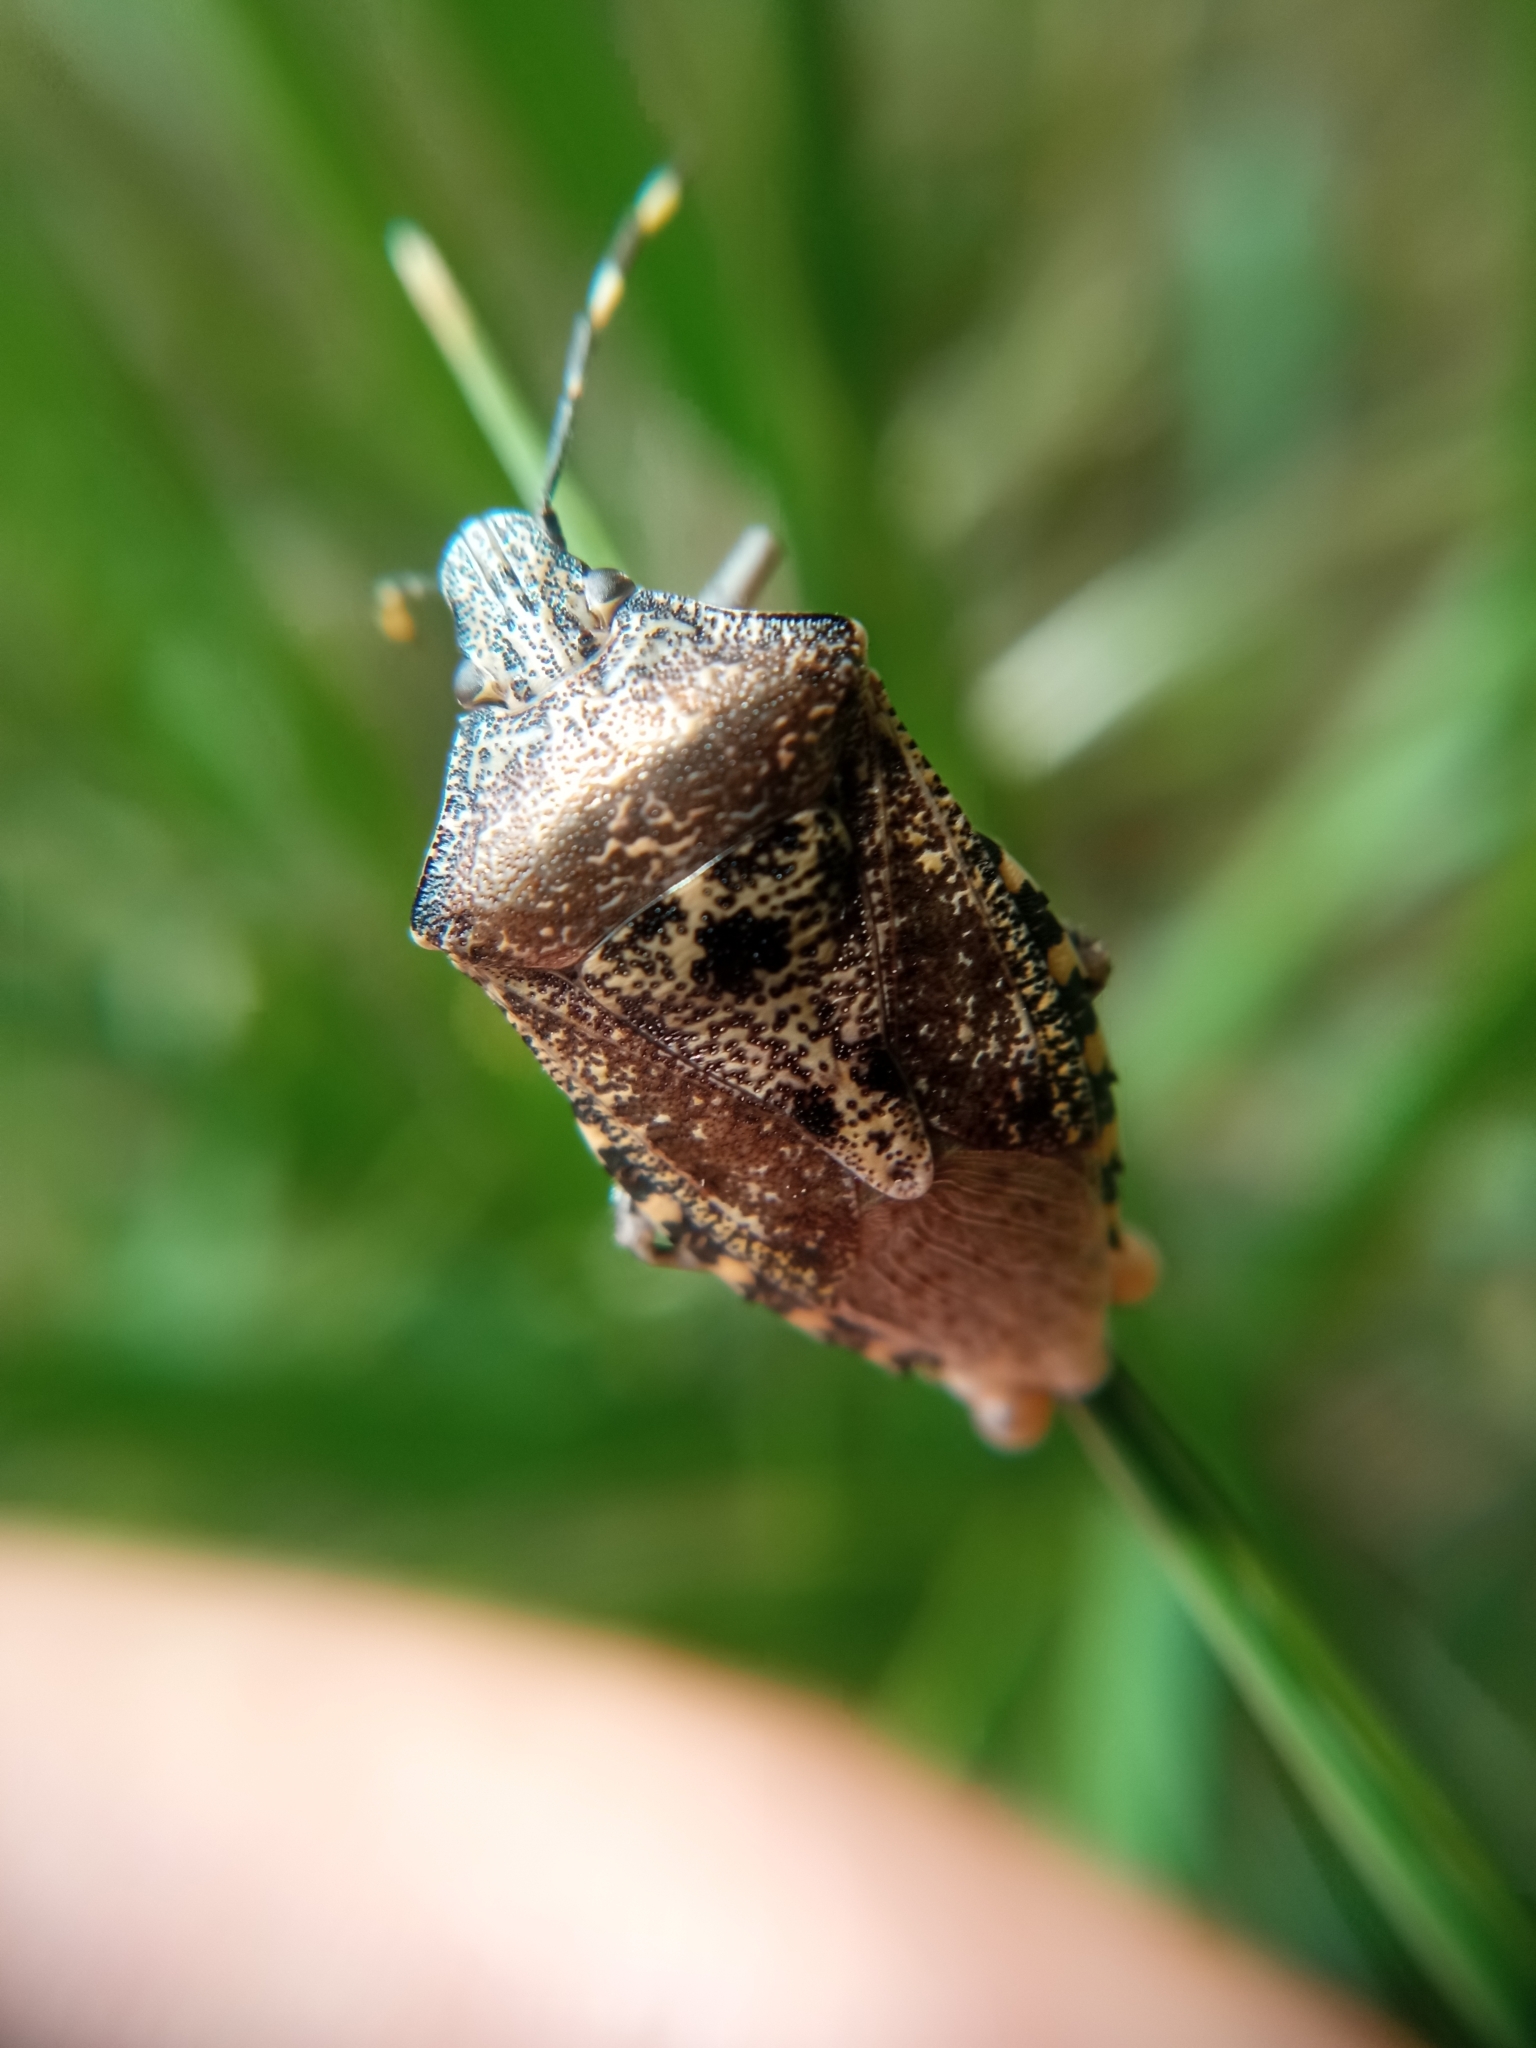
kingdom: Animalia
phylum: Arthropoda
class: Insecta
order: Hemiptera
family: Pentatomidae
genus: Rhaphigaster
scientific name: Rhaphigaster nebulosa
